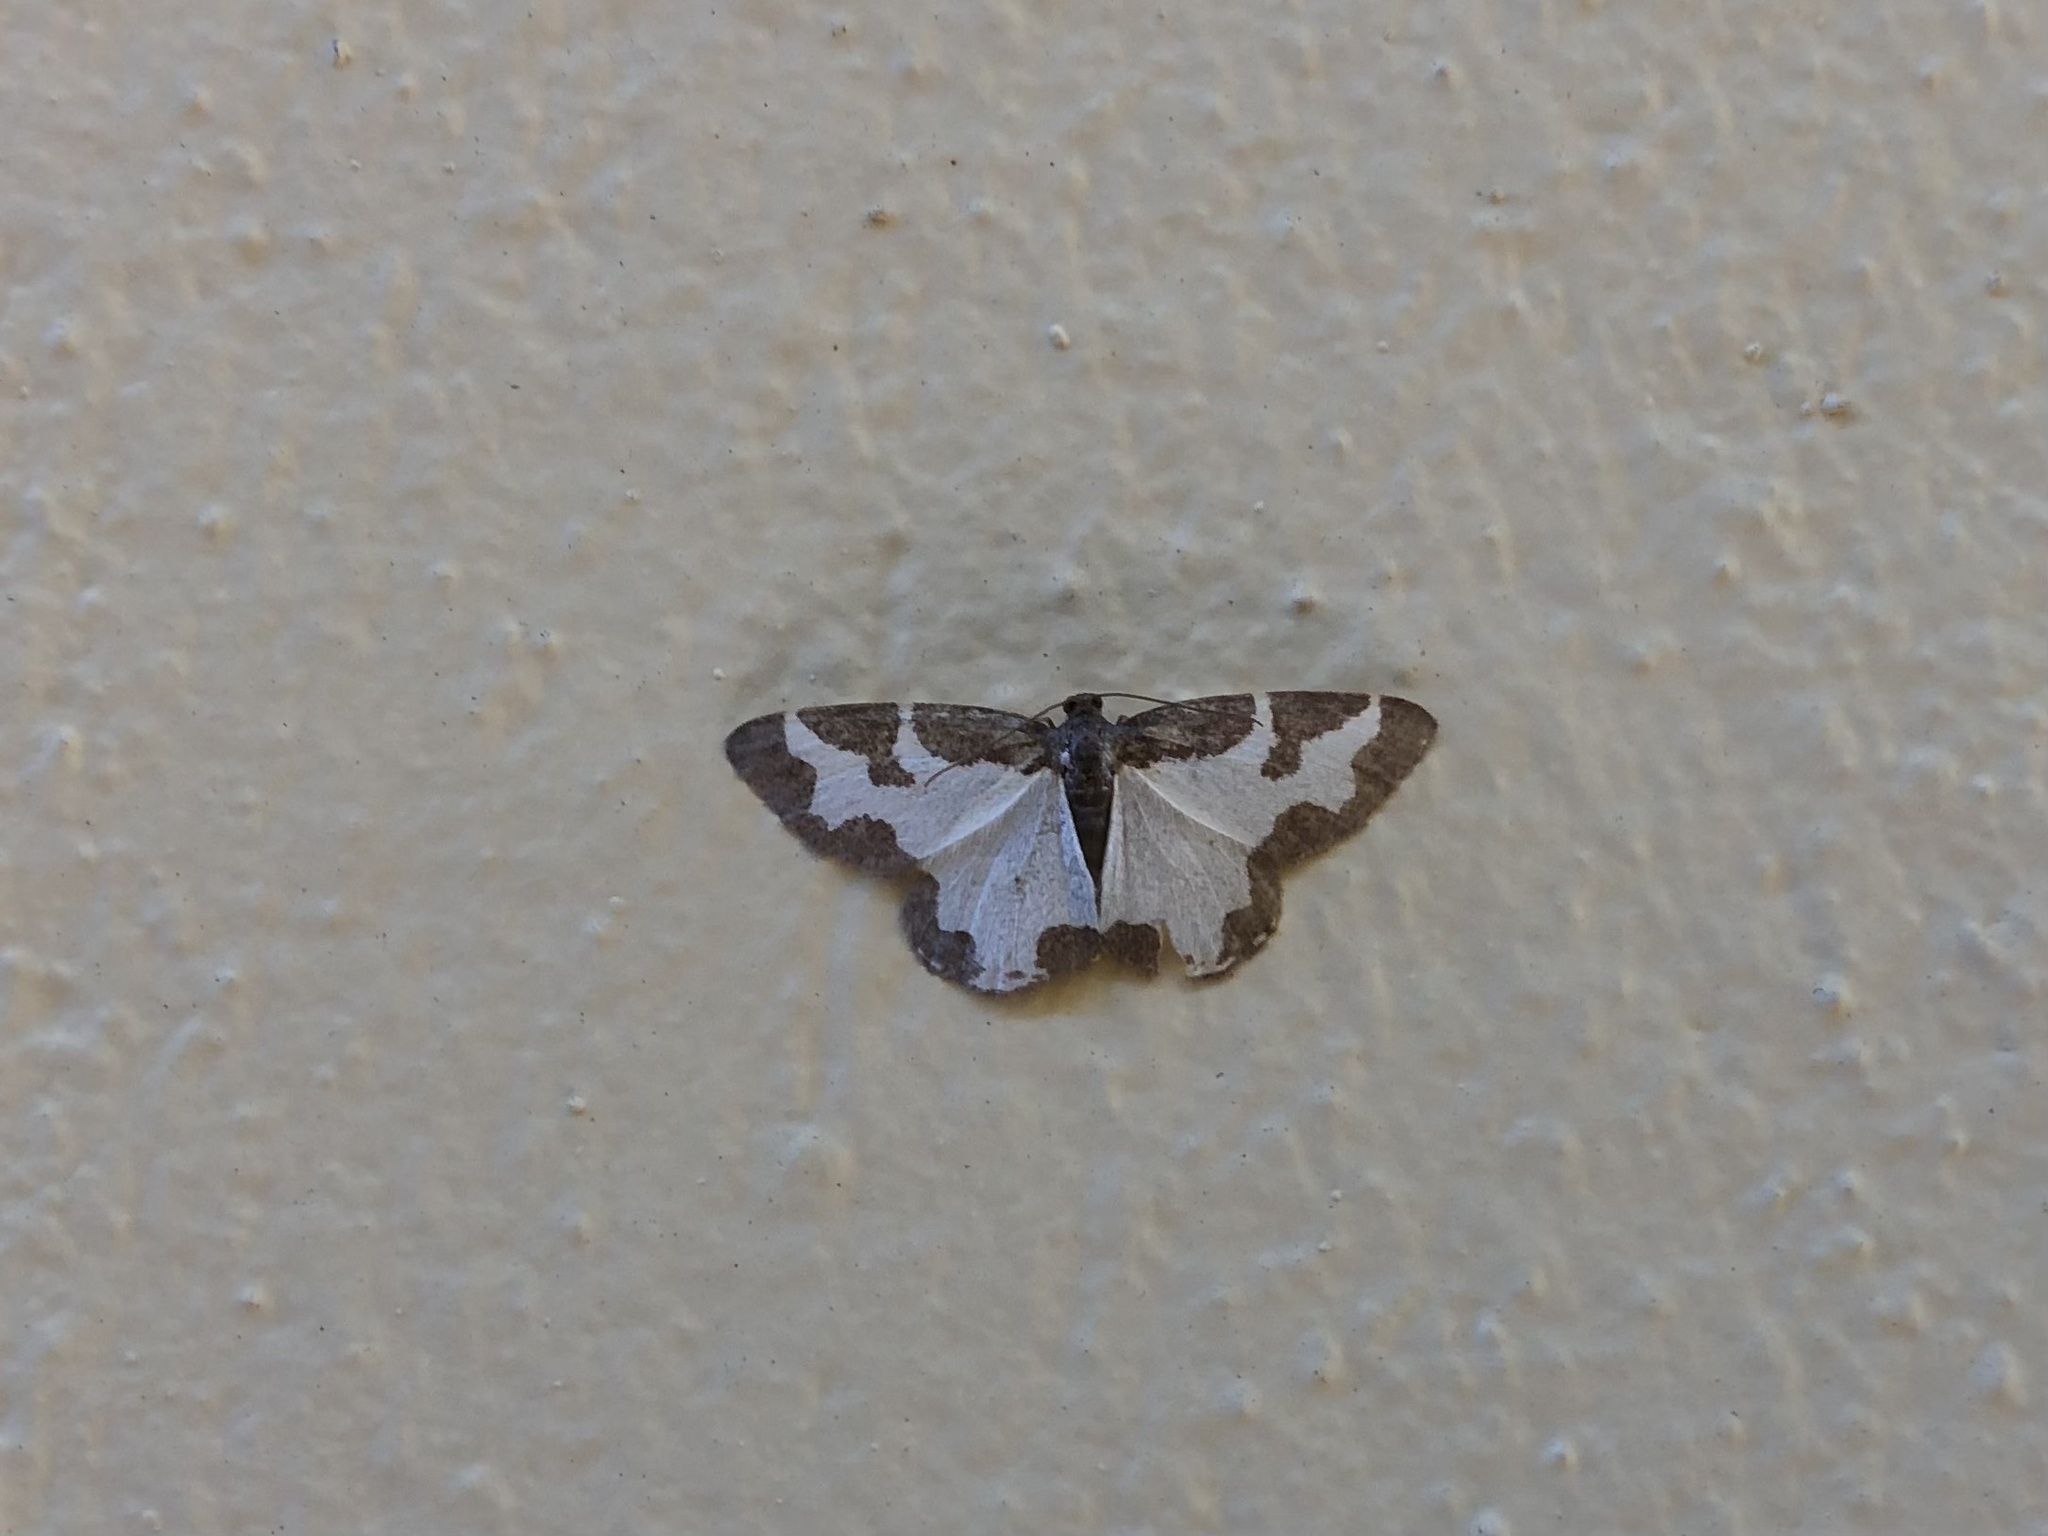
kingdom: Animalia
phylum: Arthropoda
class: Insecta
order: Lepidoptera
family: Geometridae
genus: Lomaspilis
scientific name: Lomaspilis marginata
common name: Clouded border
